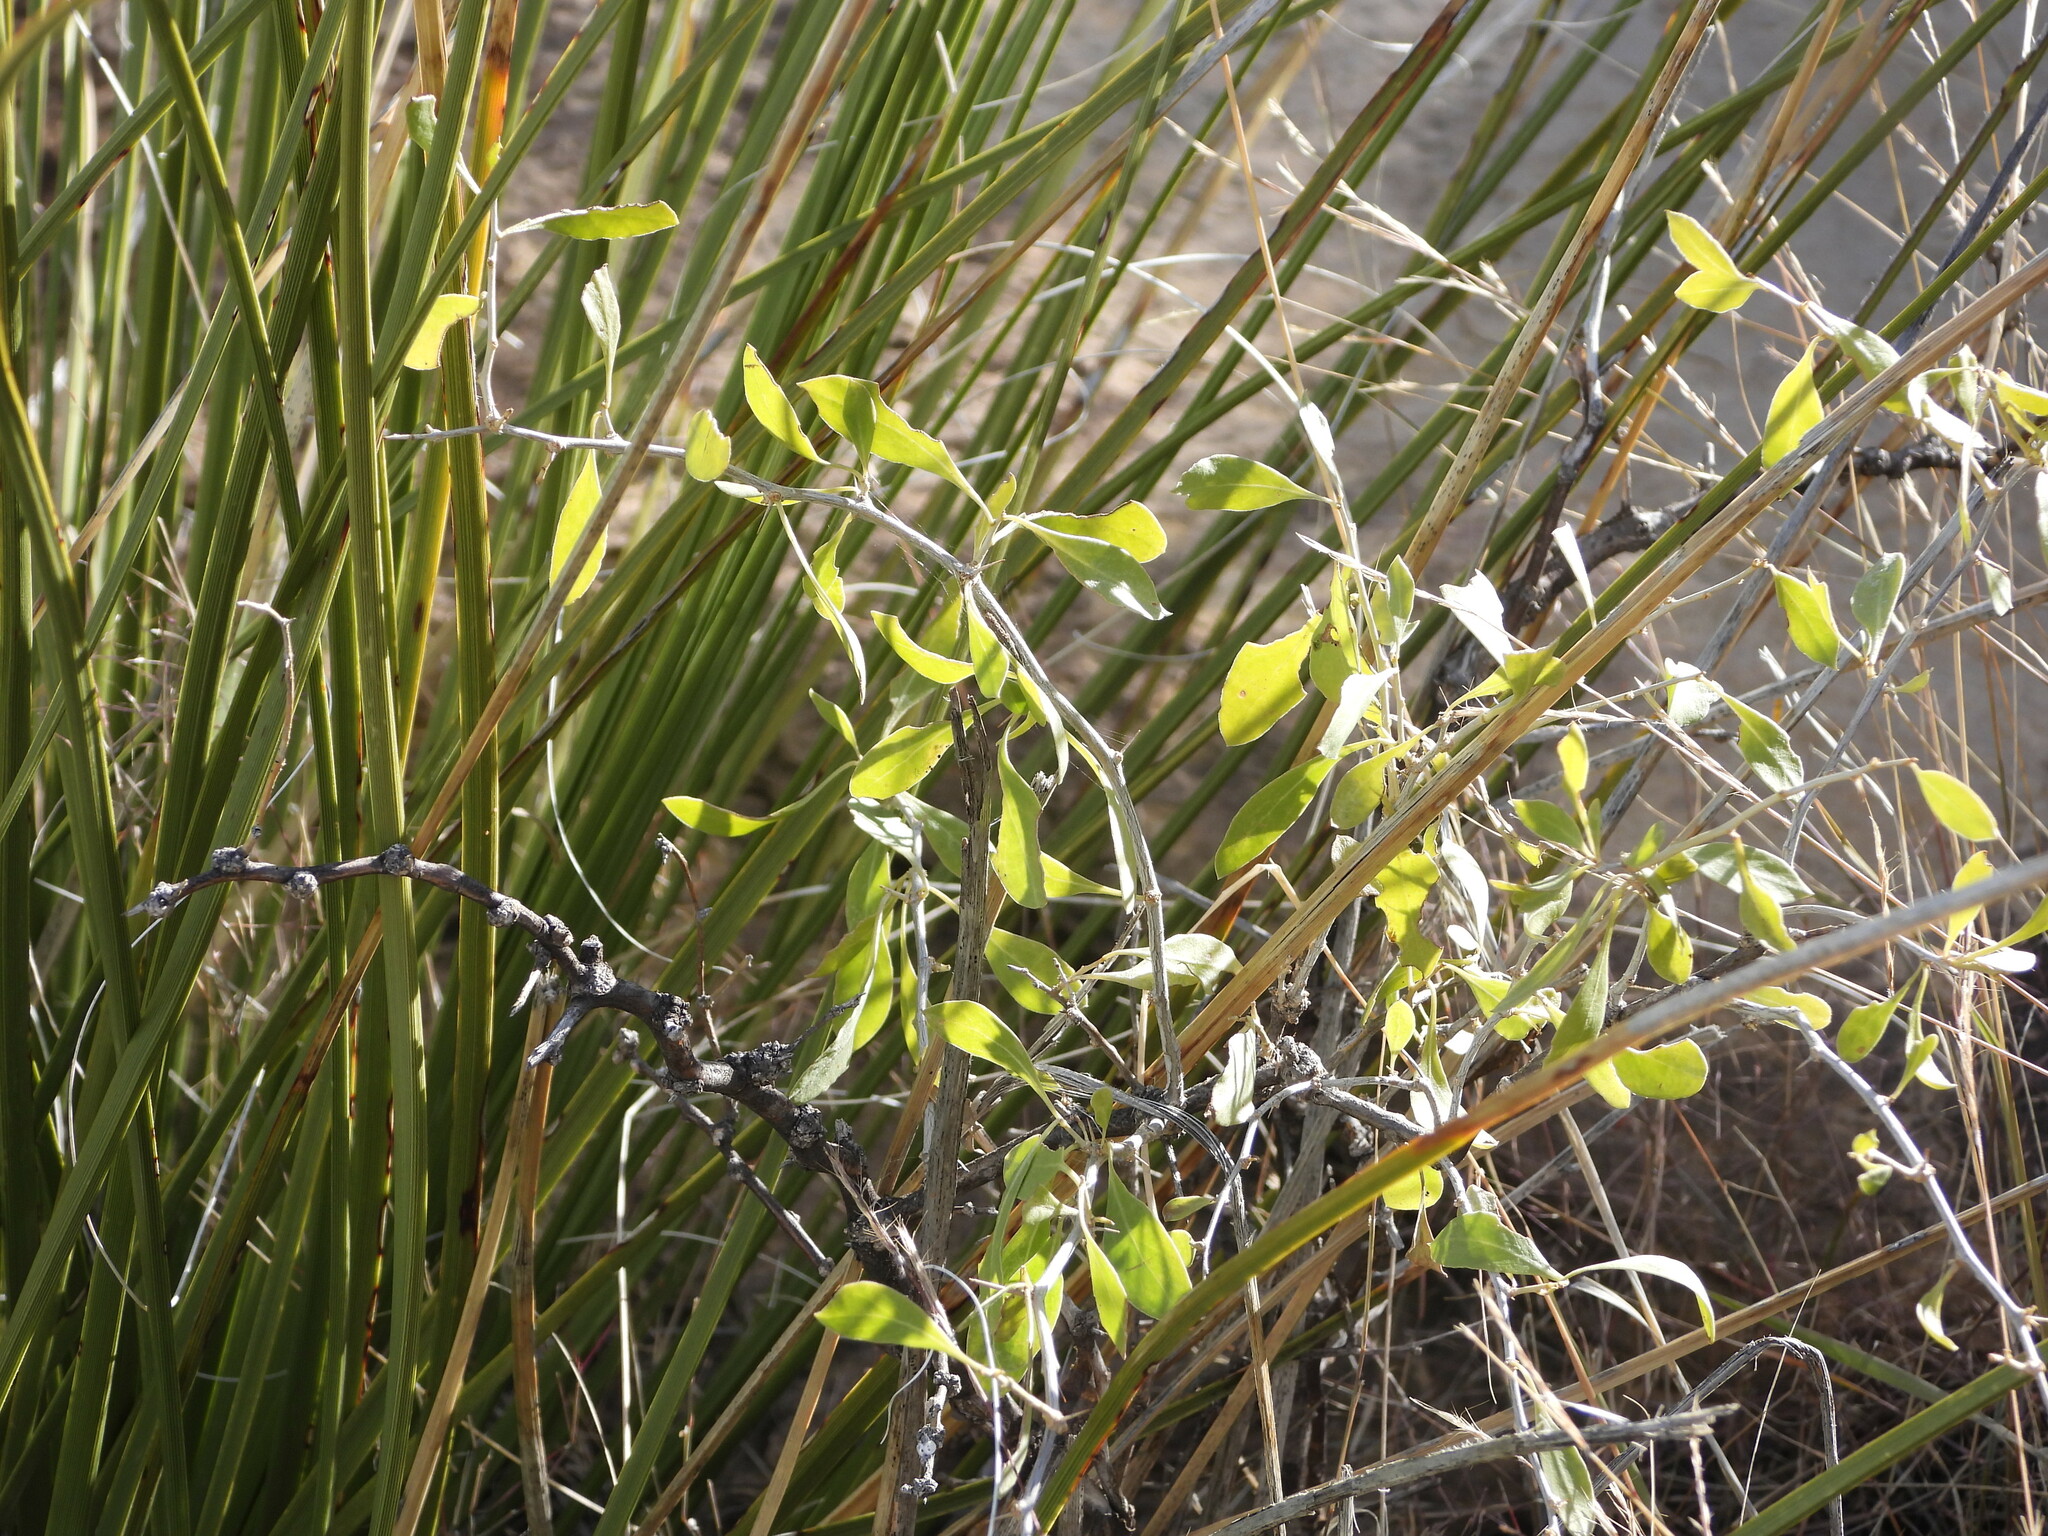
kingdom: Plantae
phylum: Tracheophyta
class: Magnoliopsida
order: Solanales
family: Solanaceae
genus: Lycium
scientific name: Lycium pallidum
